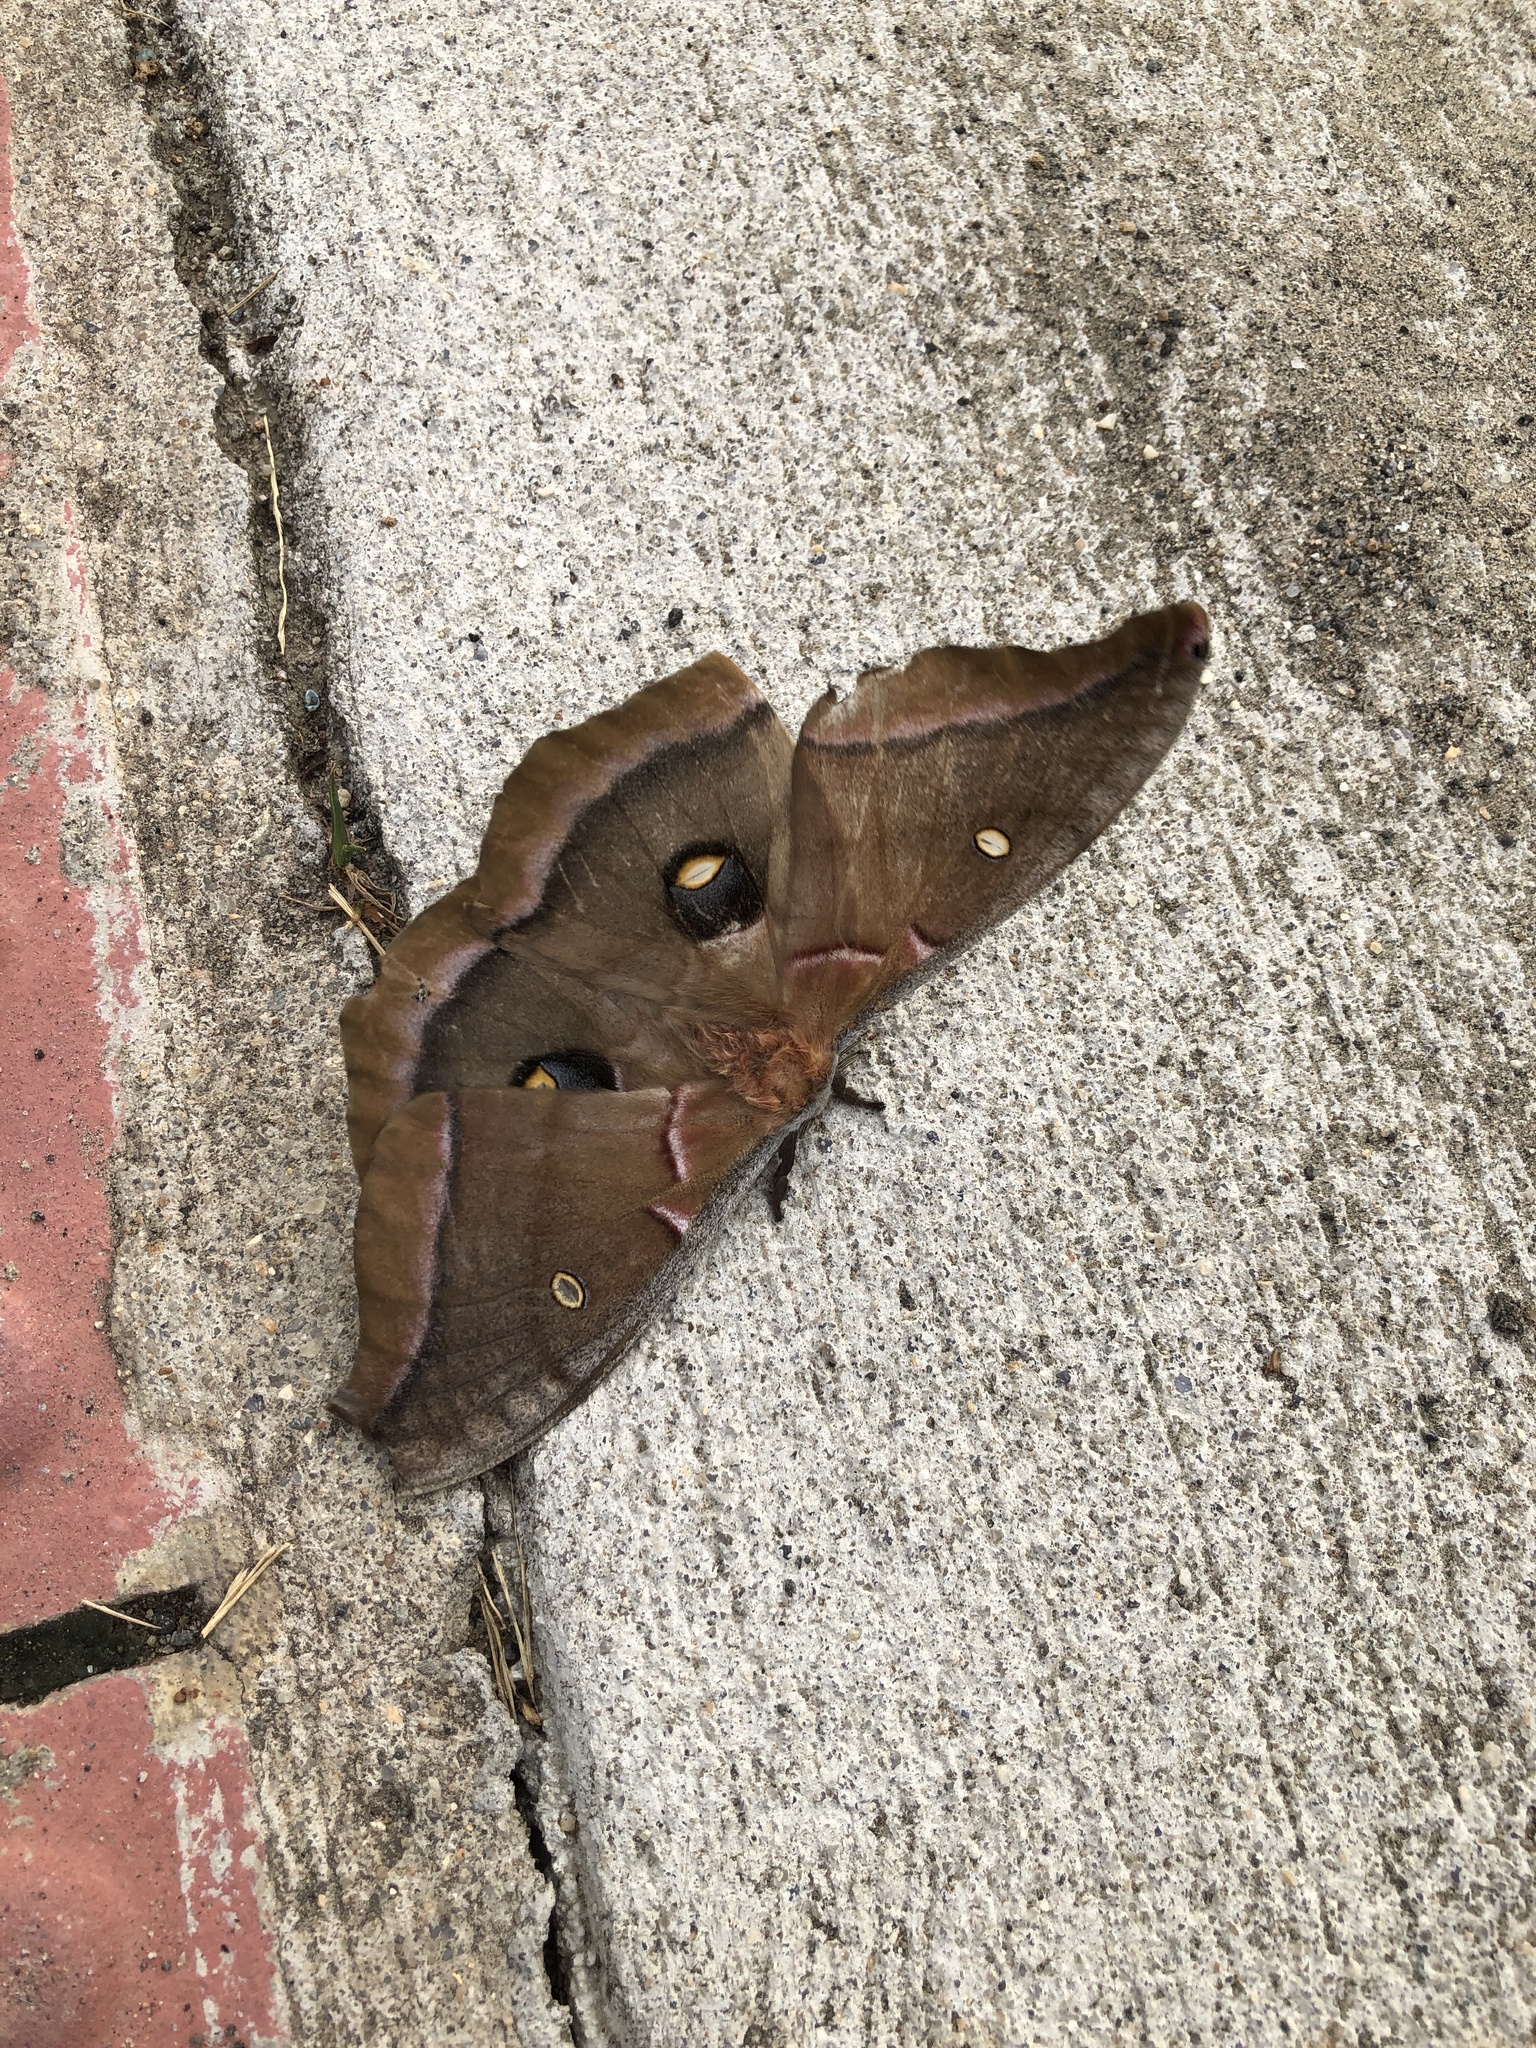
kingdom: Animalia
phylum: Arthropoda
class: Insecta
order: Lepidoptera
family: Saturniidae
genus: Antheraea
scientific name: Antheraea polyphemus
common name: Polyphemus moth
